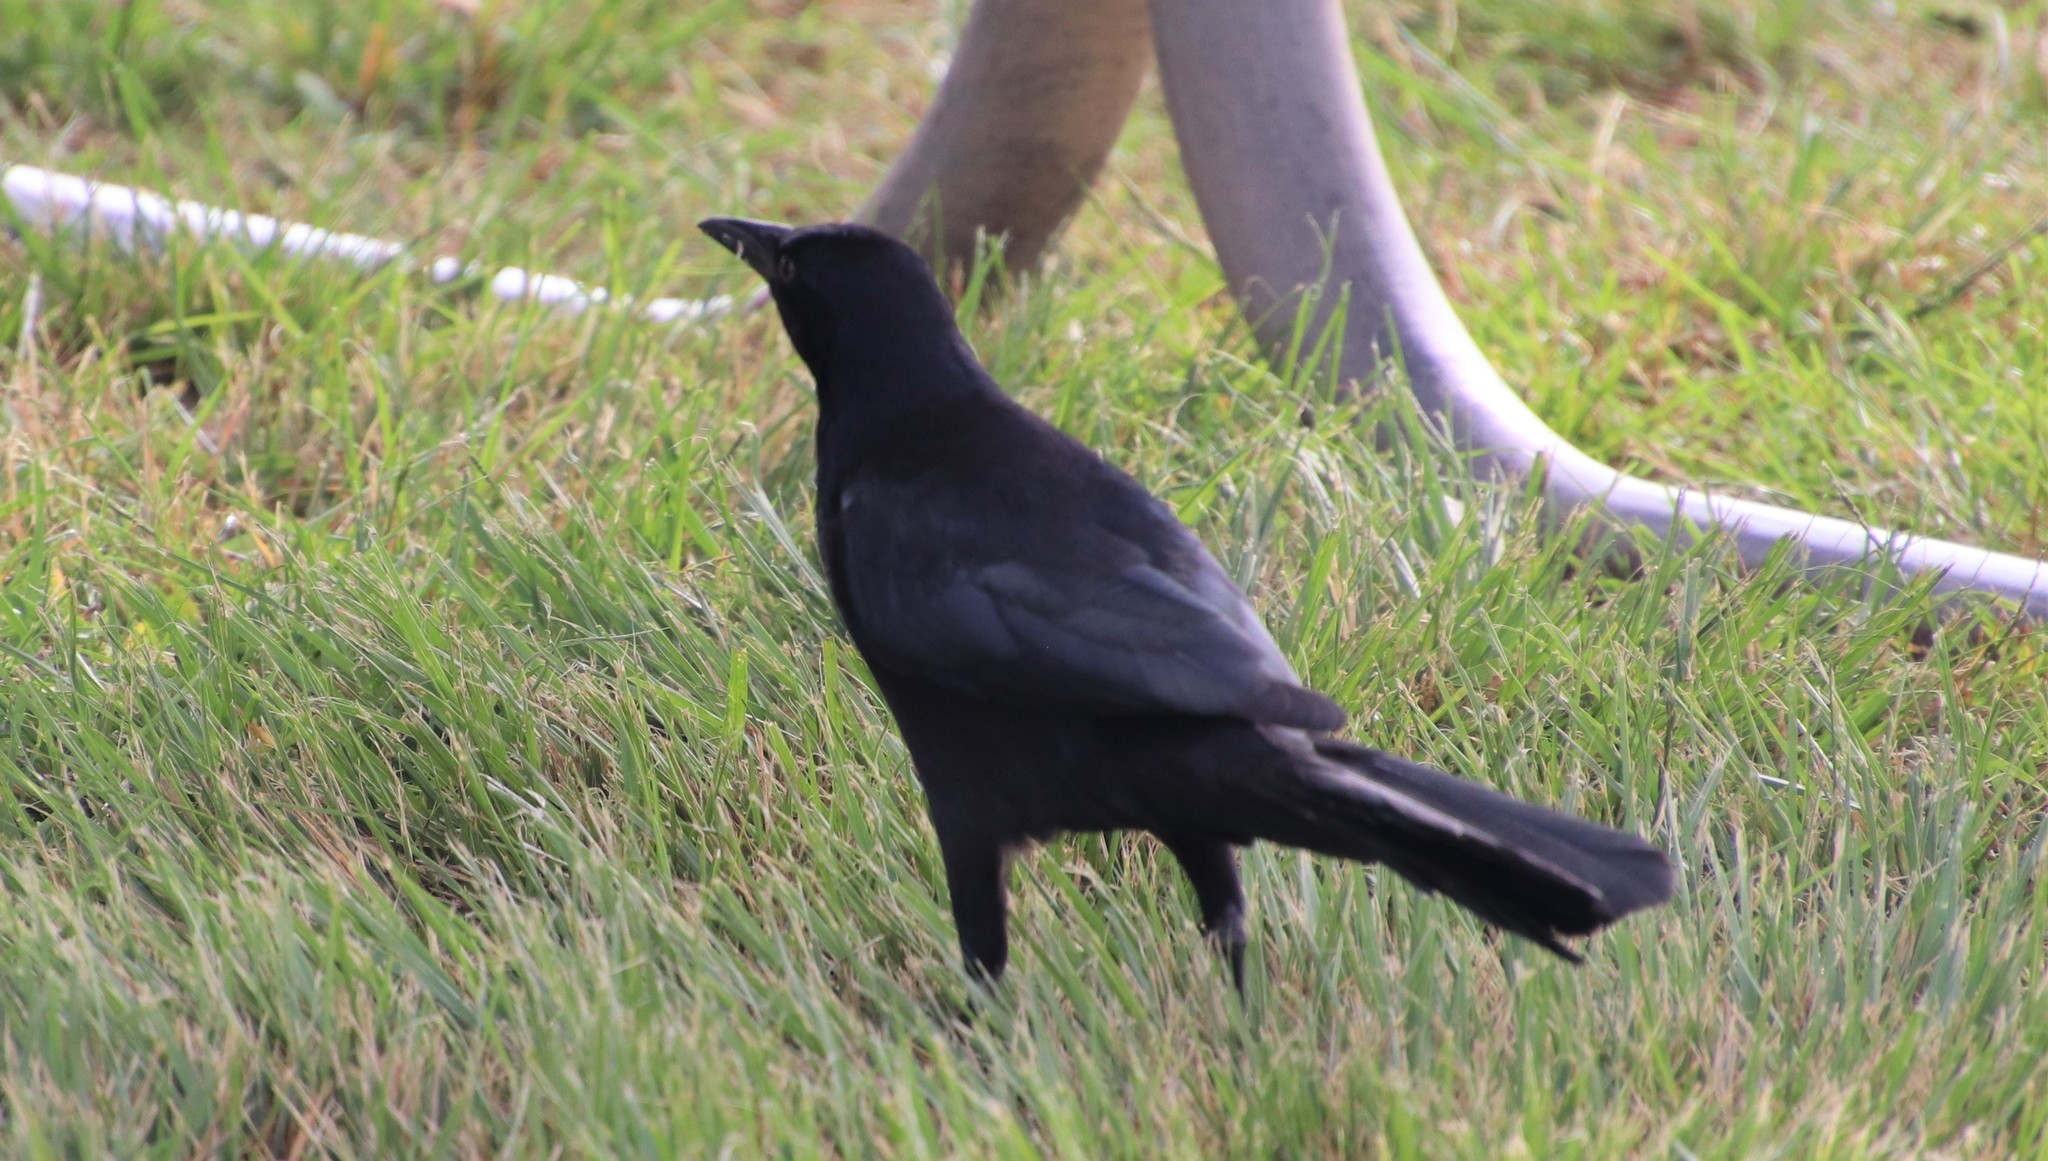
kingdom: Animalia
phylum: Chordata
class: Aves
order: Passeriformes
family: Icteridae
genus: Quiscalus
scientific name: Quiscalus mexicanus
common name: Great-tailed grackle
